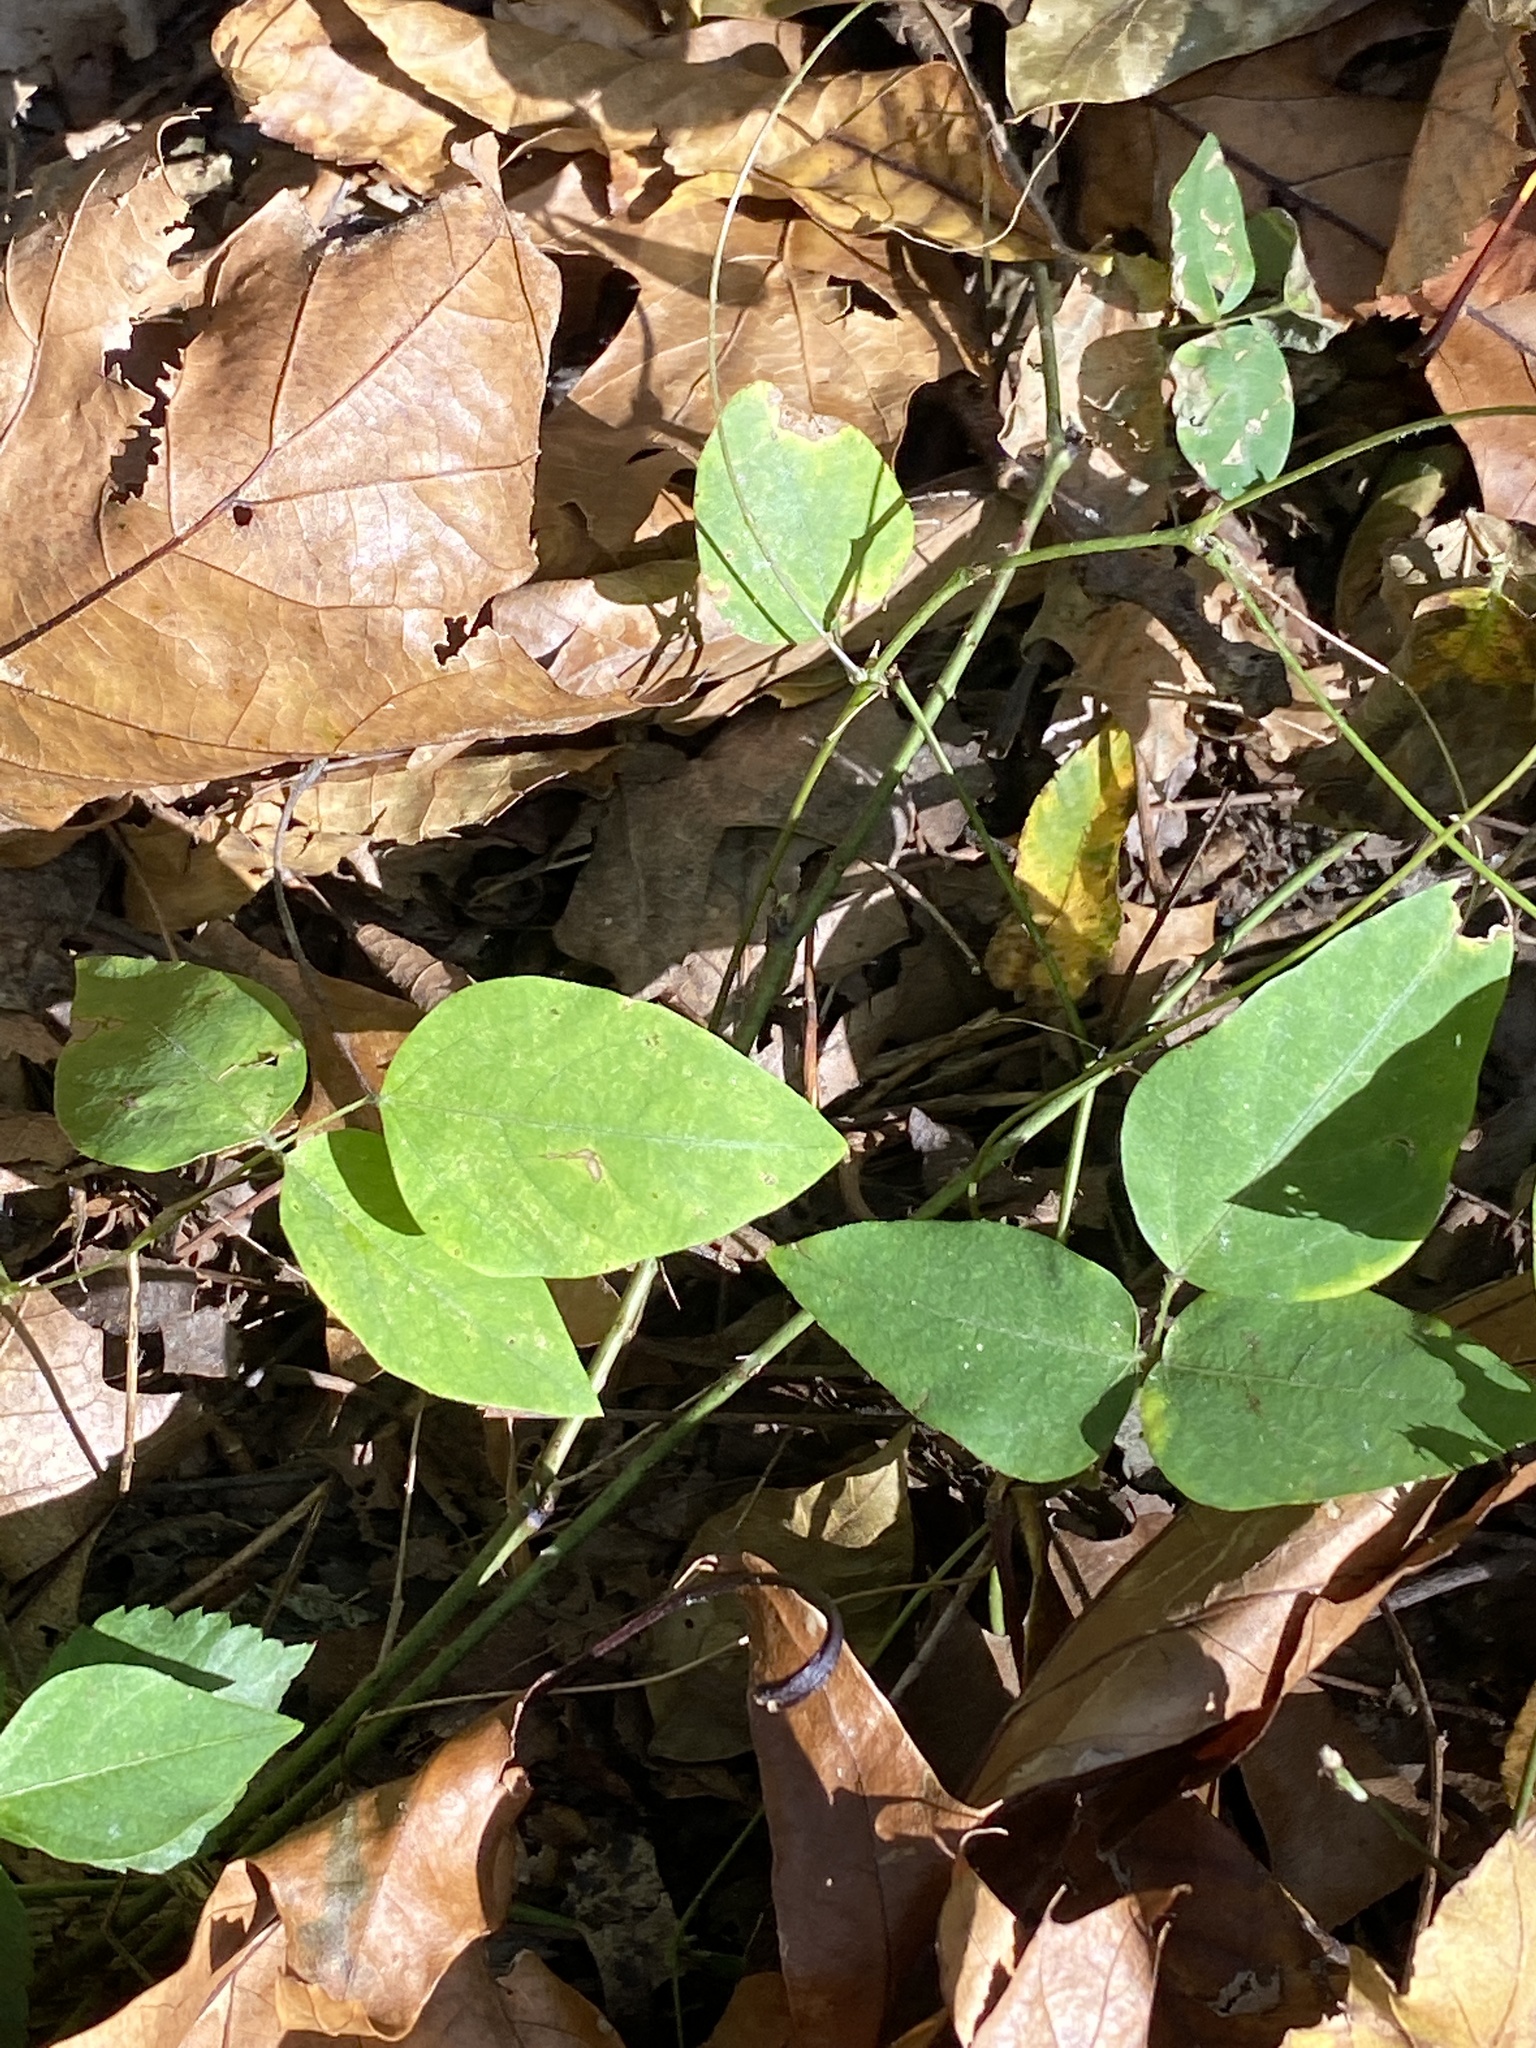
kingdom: Plantae
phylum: Tracheophyta
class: Magnoliopsida
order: Fabales
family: Fabaceae
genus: Amphicarpaea
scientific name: Amphicarpaea bracteata
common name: American hog peanut
